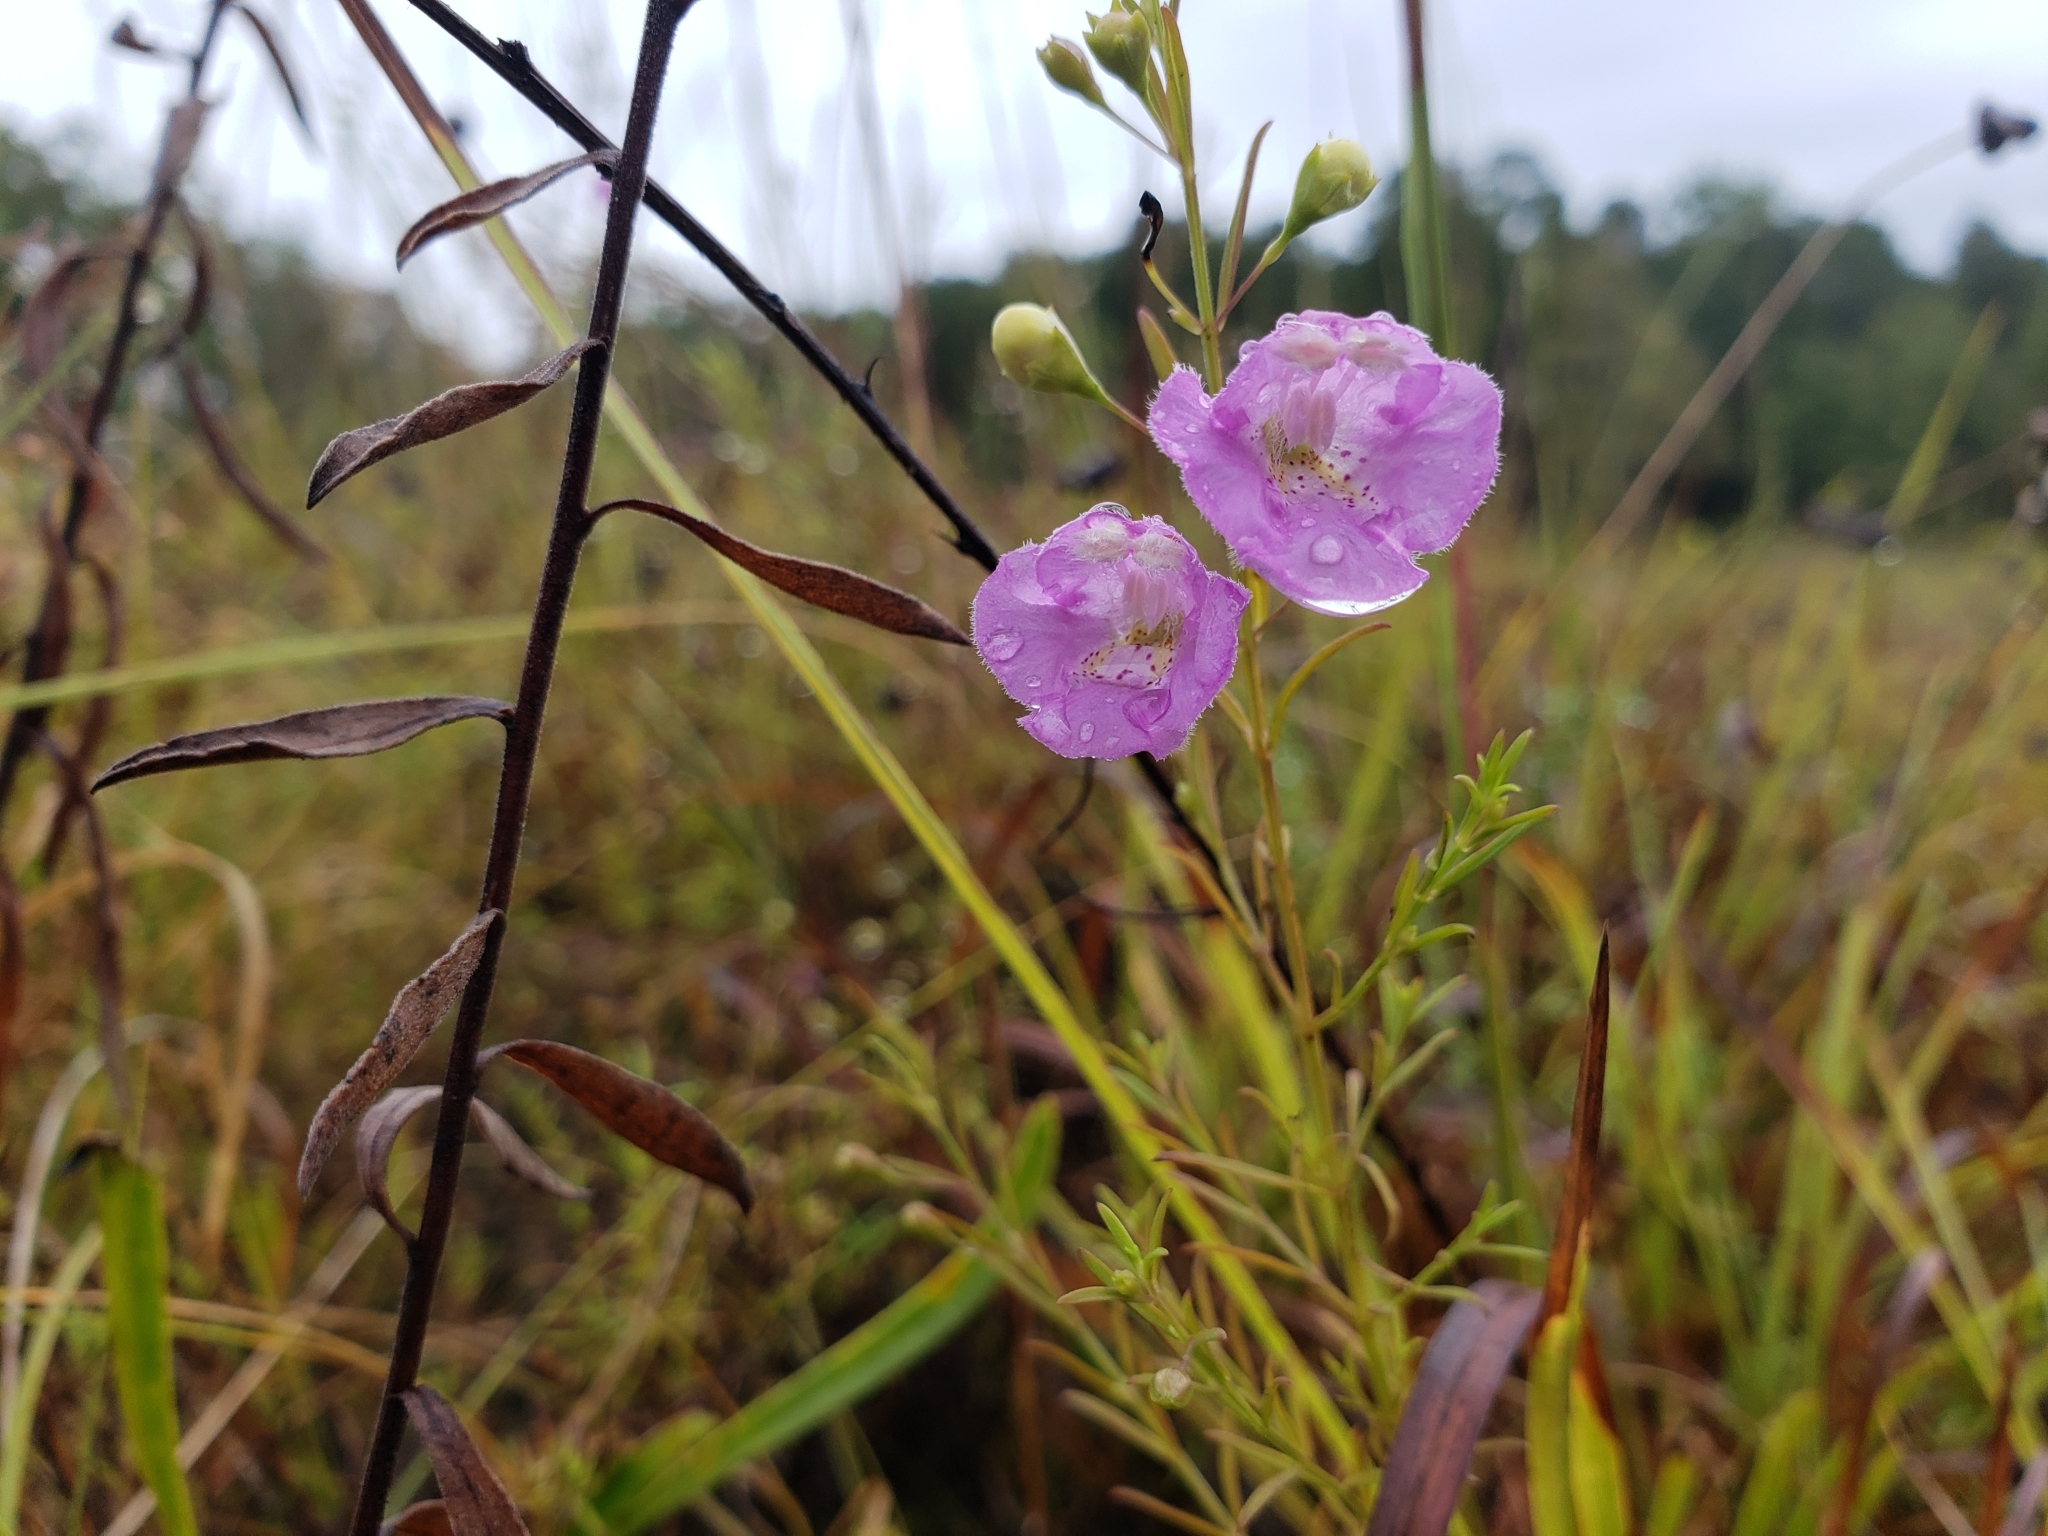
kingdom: Plantae
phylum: Tracheophyta
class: Magnoliopsida
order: Lamiales
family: Orobanchaceae
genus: Agalinis
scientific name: Agalinis tenuifolia
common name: Slender agalinis
